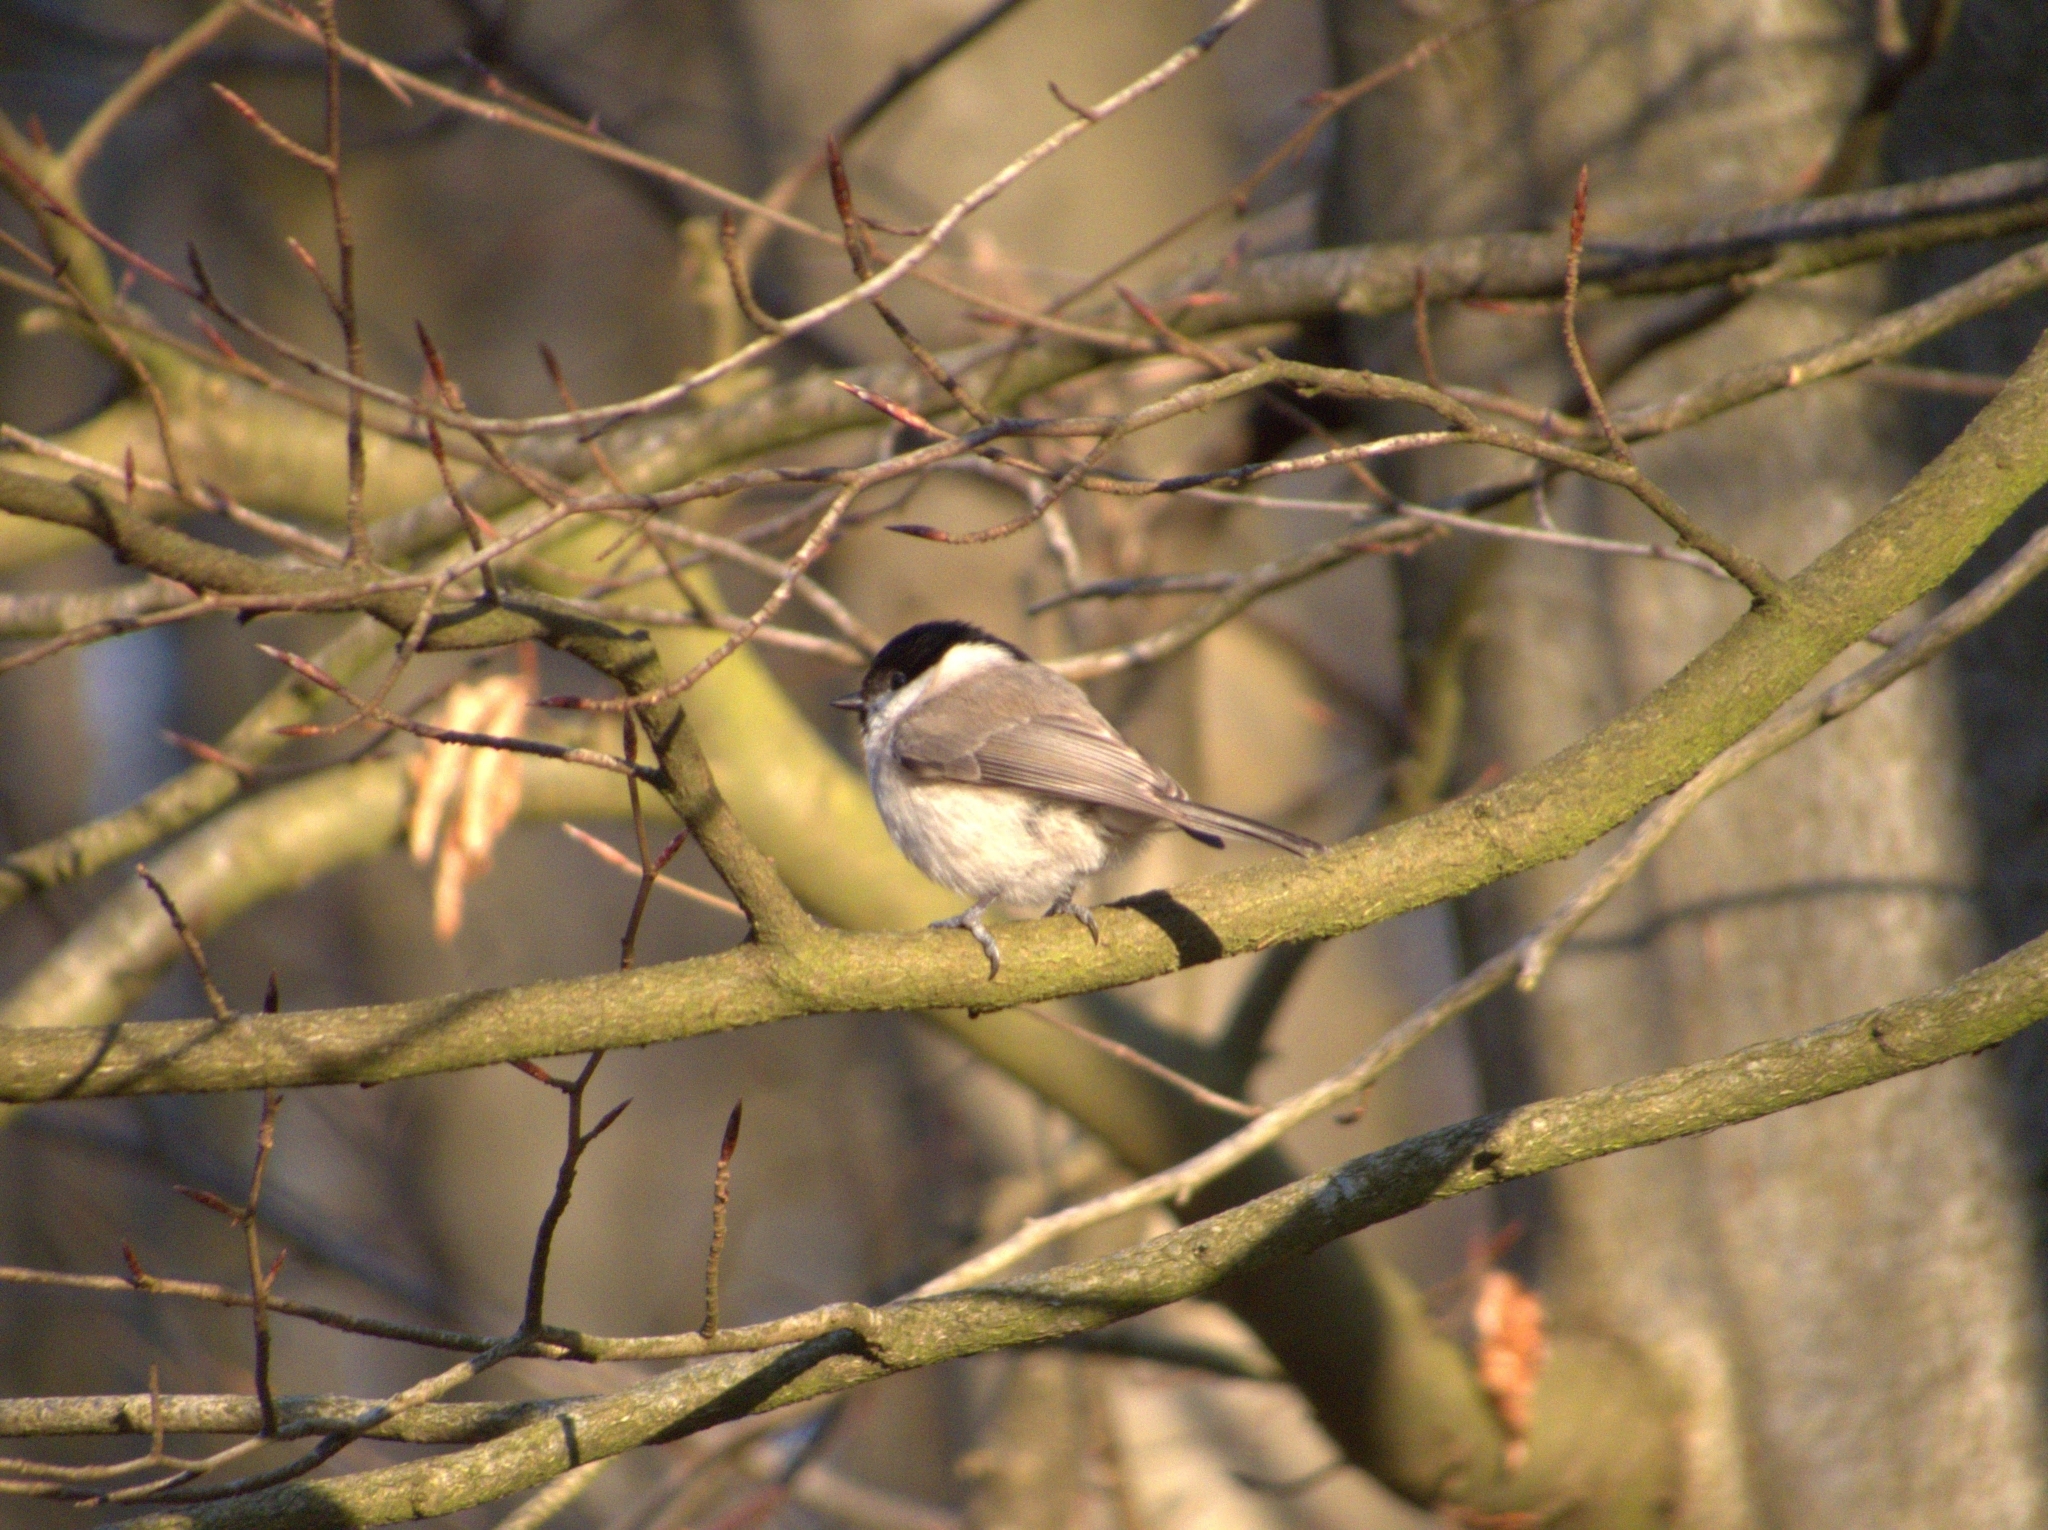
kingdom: Animalia
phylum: Chordata
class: Aves
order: Passeriformes
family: Paridae
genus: Poecile
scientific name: Poecile palustris
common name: Marsh tit
